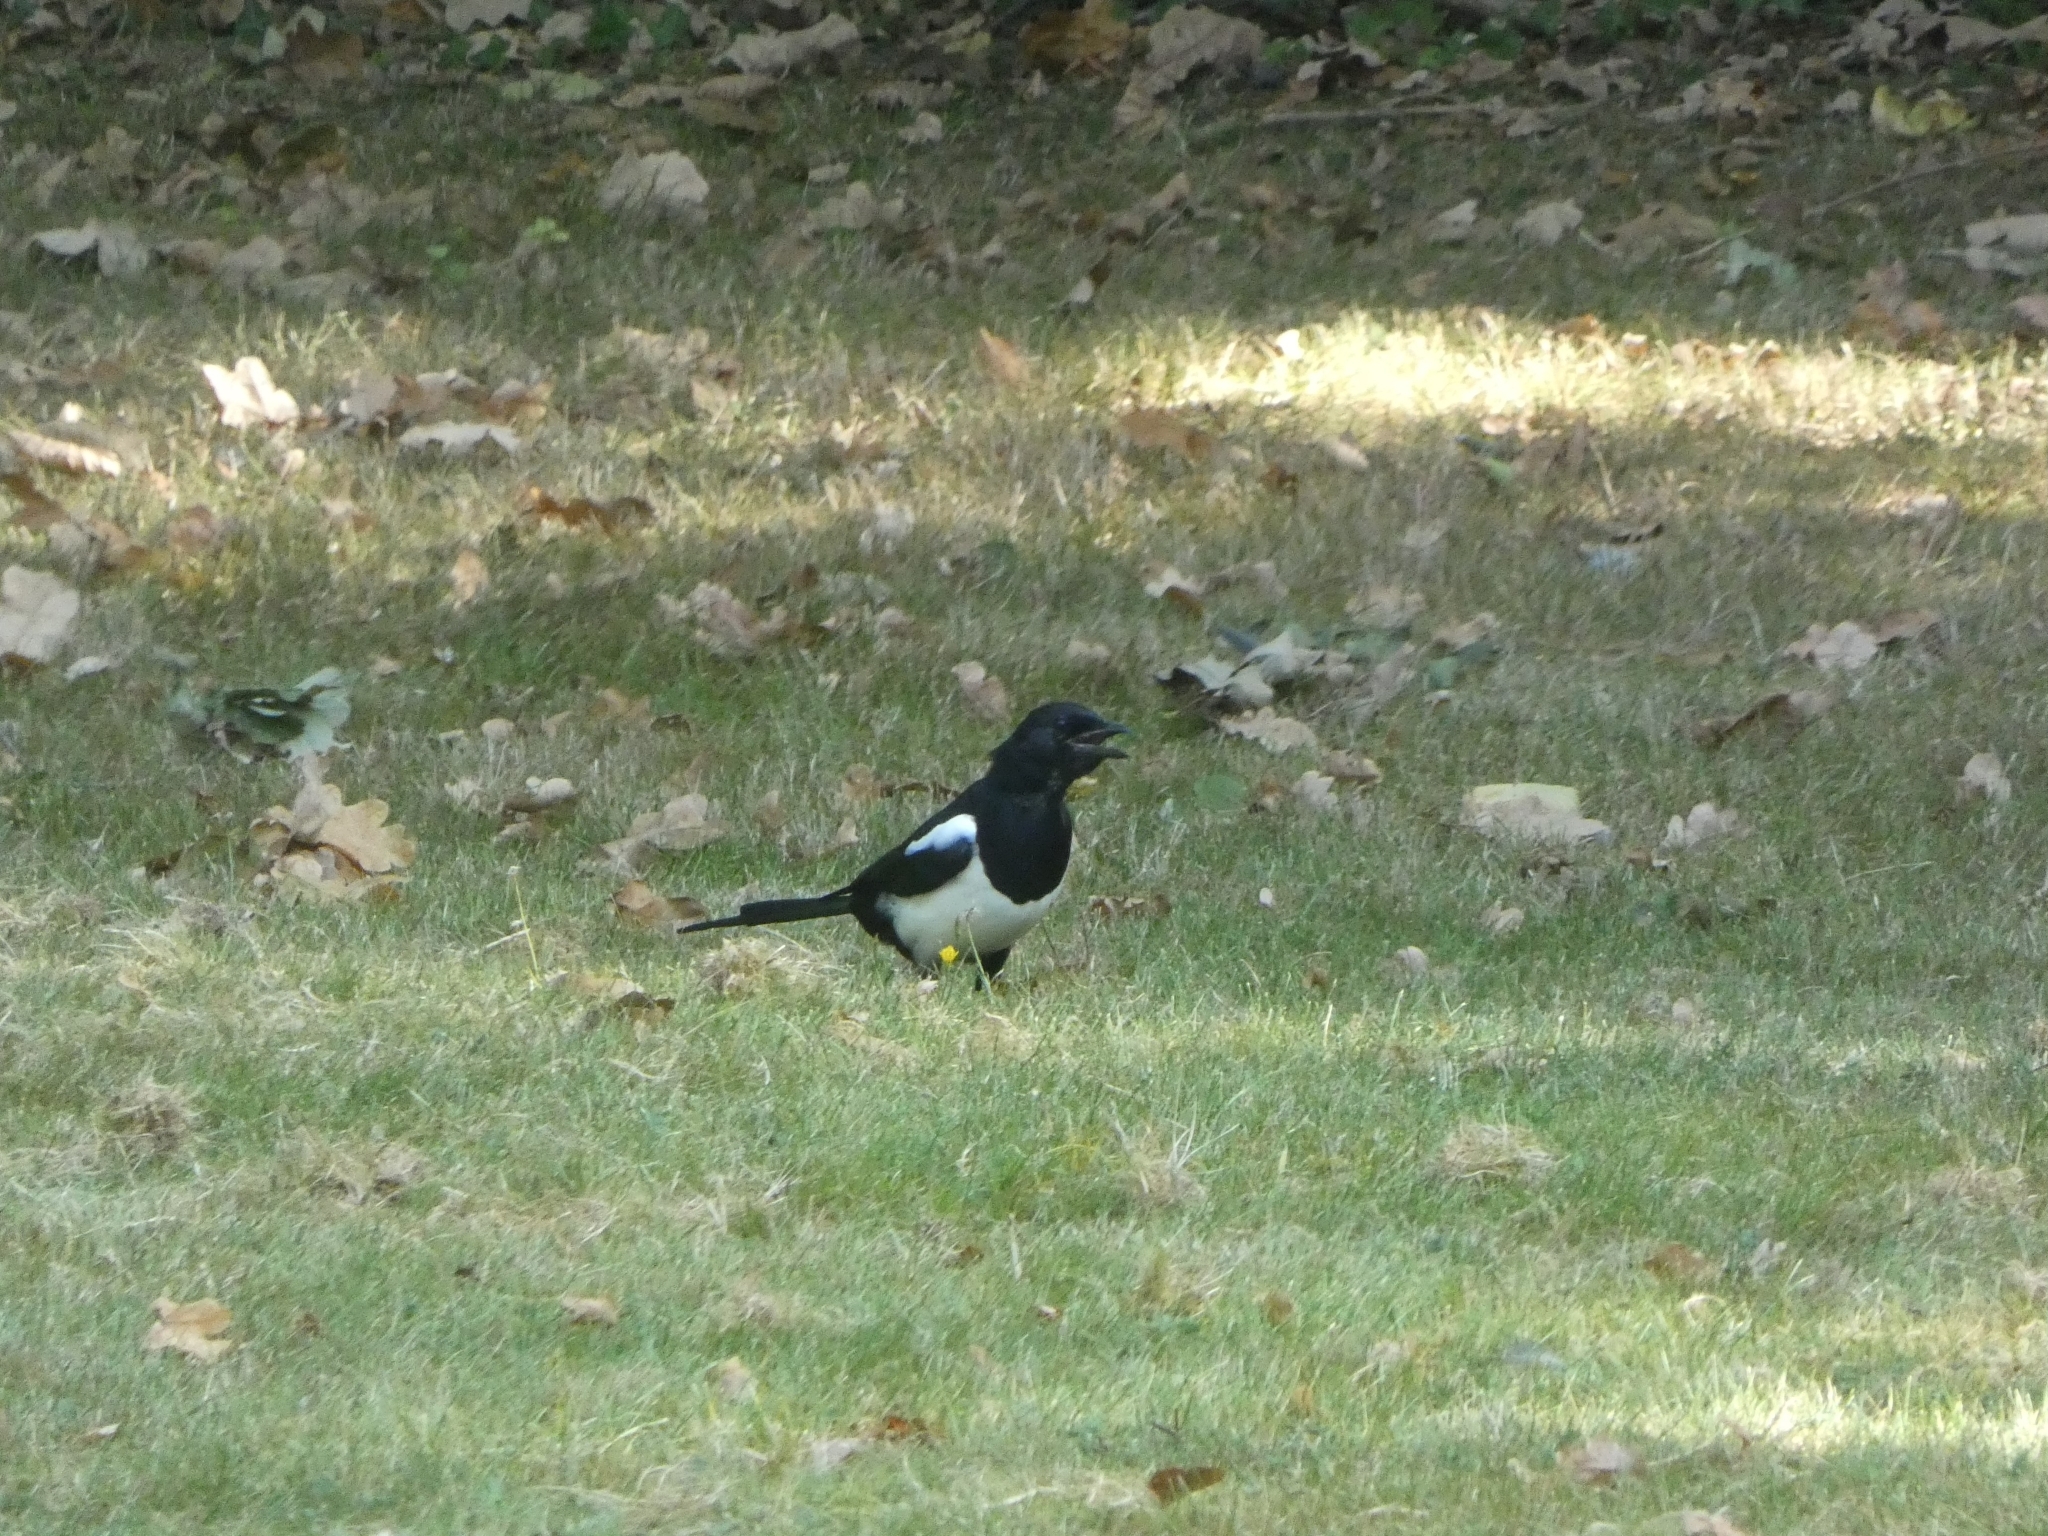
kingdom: Animalia
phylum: Chordata
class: Aves
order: Passeriformes
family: Corvidae
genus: Pica
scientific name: Pica pica
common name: Eurasian magpie
